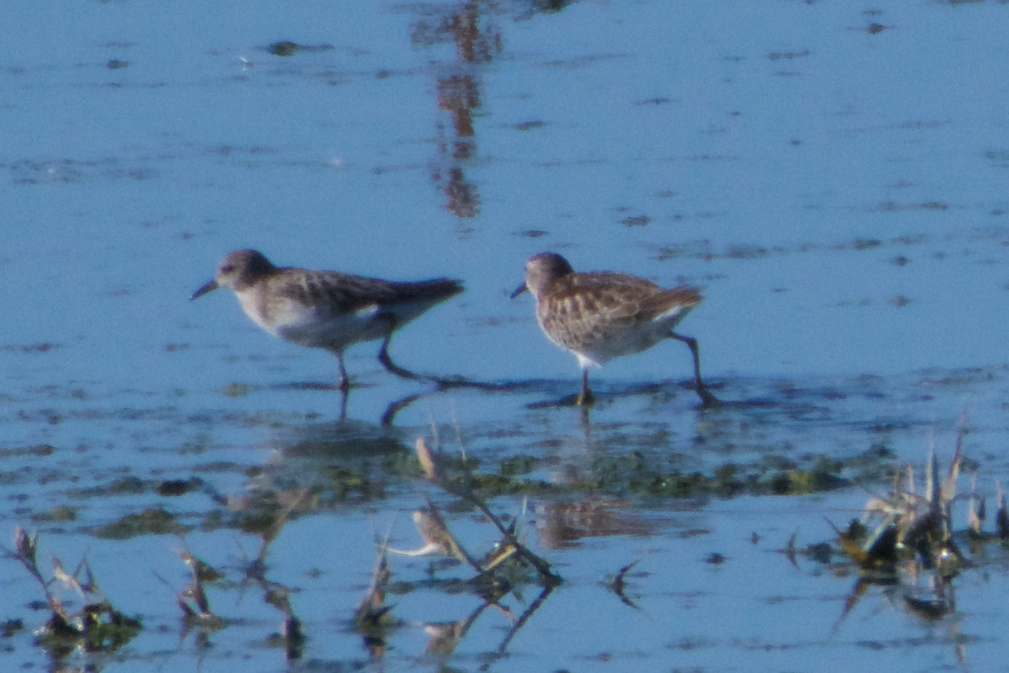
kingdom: Animalia
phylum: Chordata
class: Aves
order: Charadriiformes
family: Scolopacidae
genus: Calidris
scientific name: Calidris minutilla
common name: Least sandpiper
